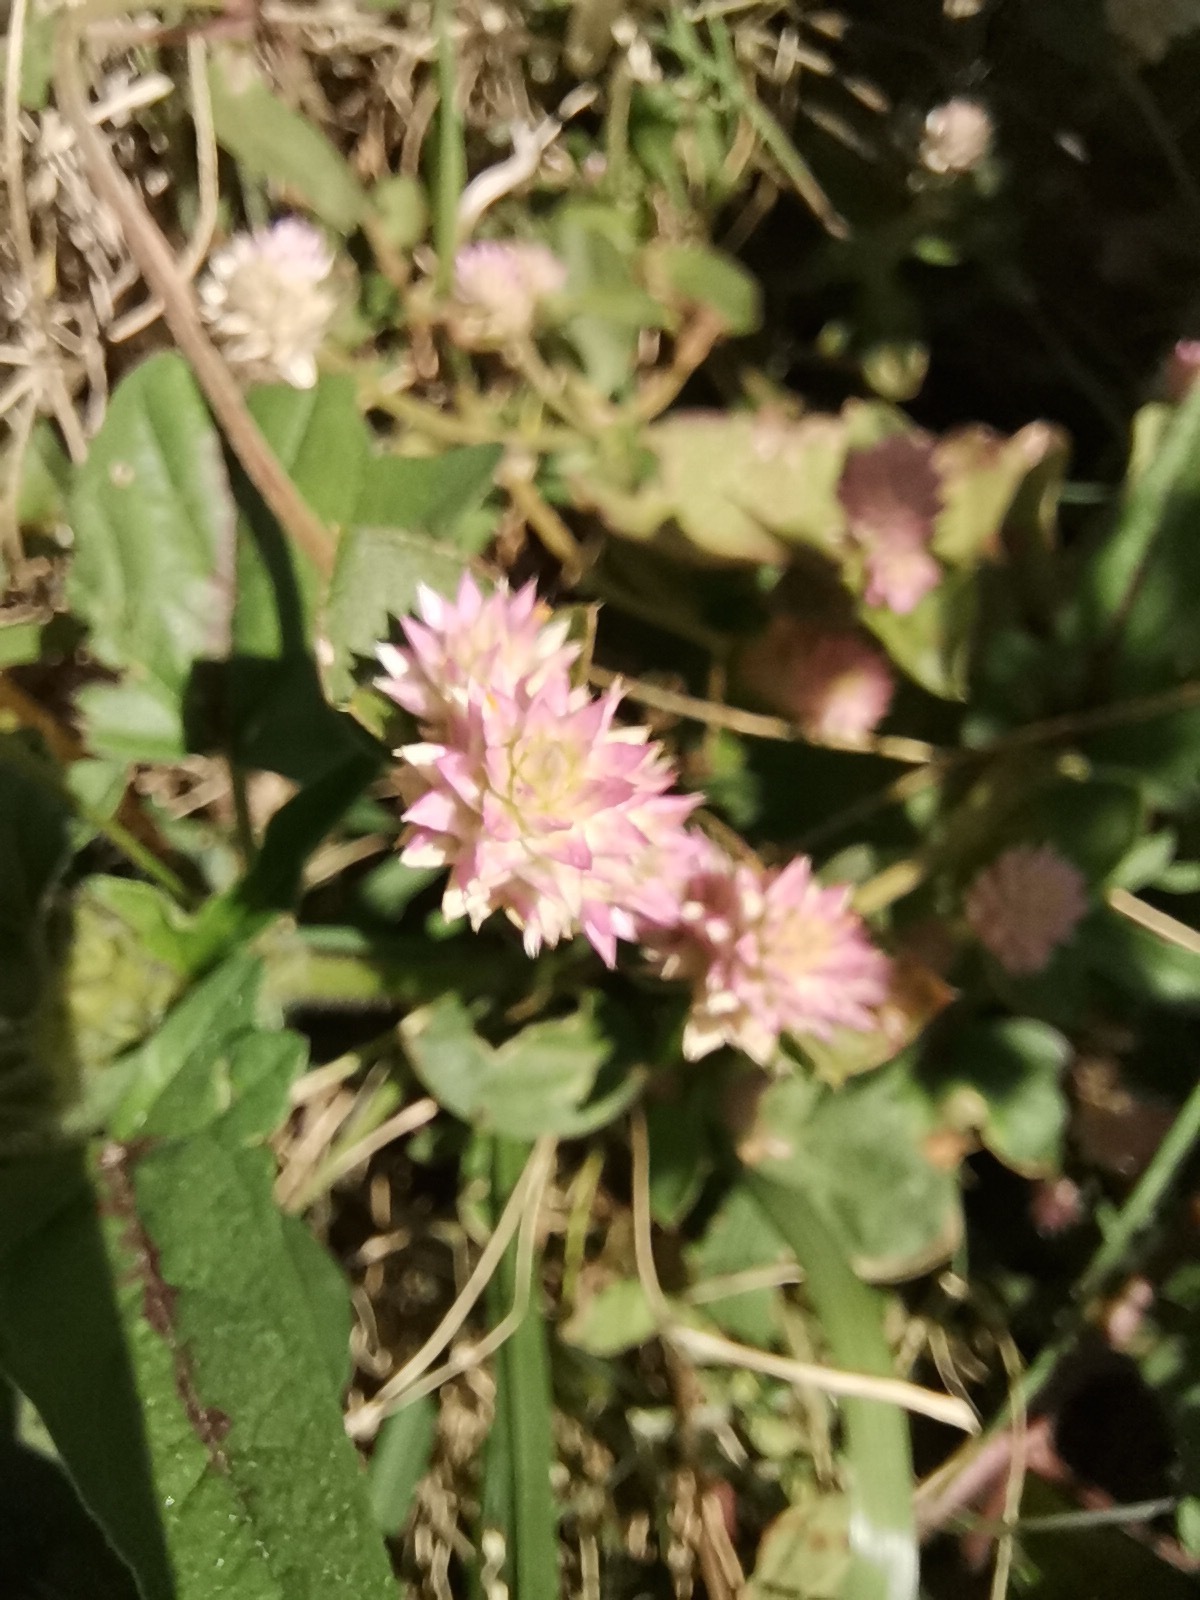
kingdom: Plantae
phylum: Tracheophyta
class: Magnoliopsida
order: Caryophyllales
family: Amaranthaceae
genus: Gomphrena
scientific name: Gomphrena serrata
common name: Arrasa con todo
